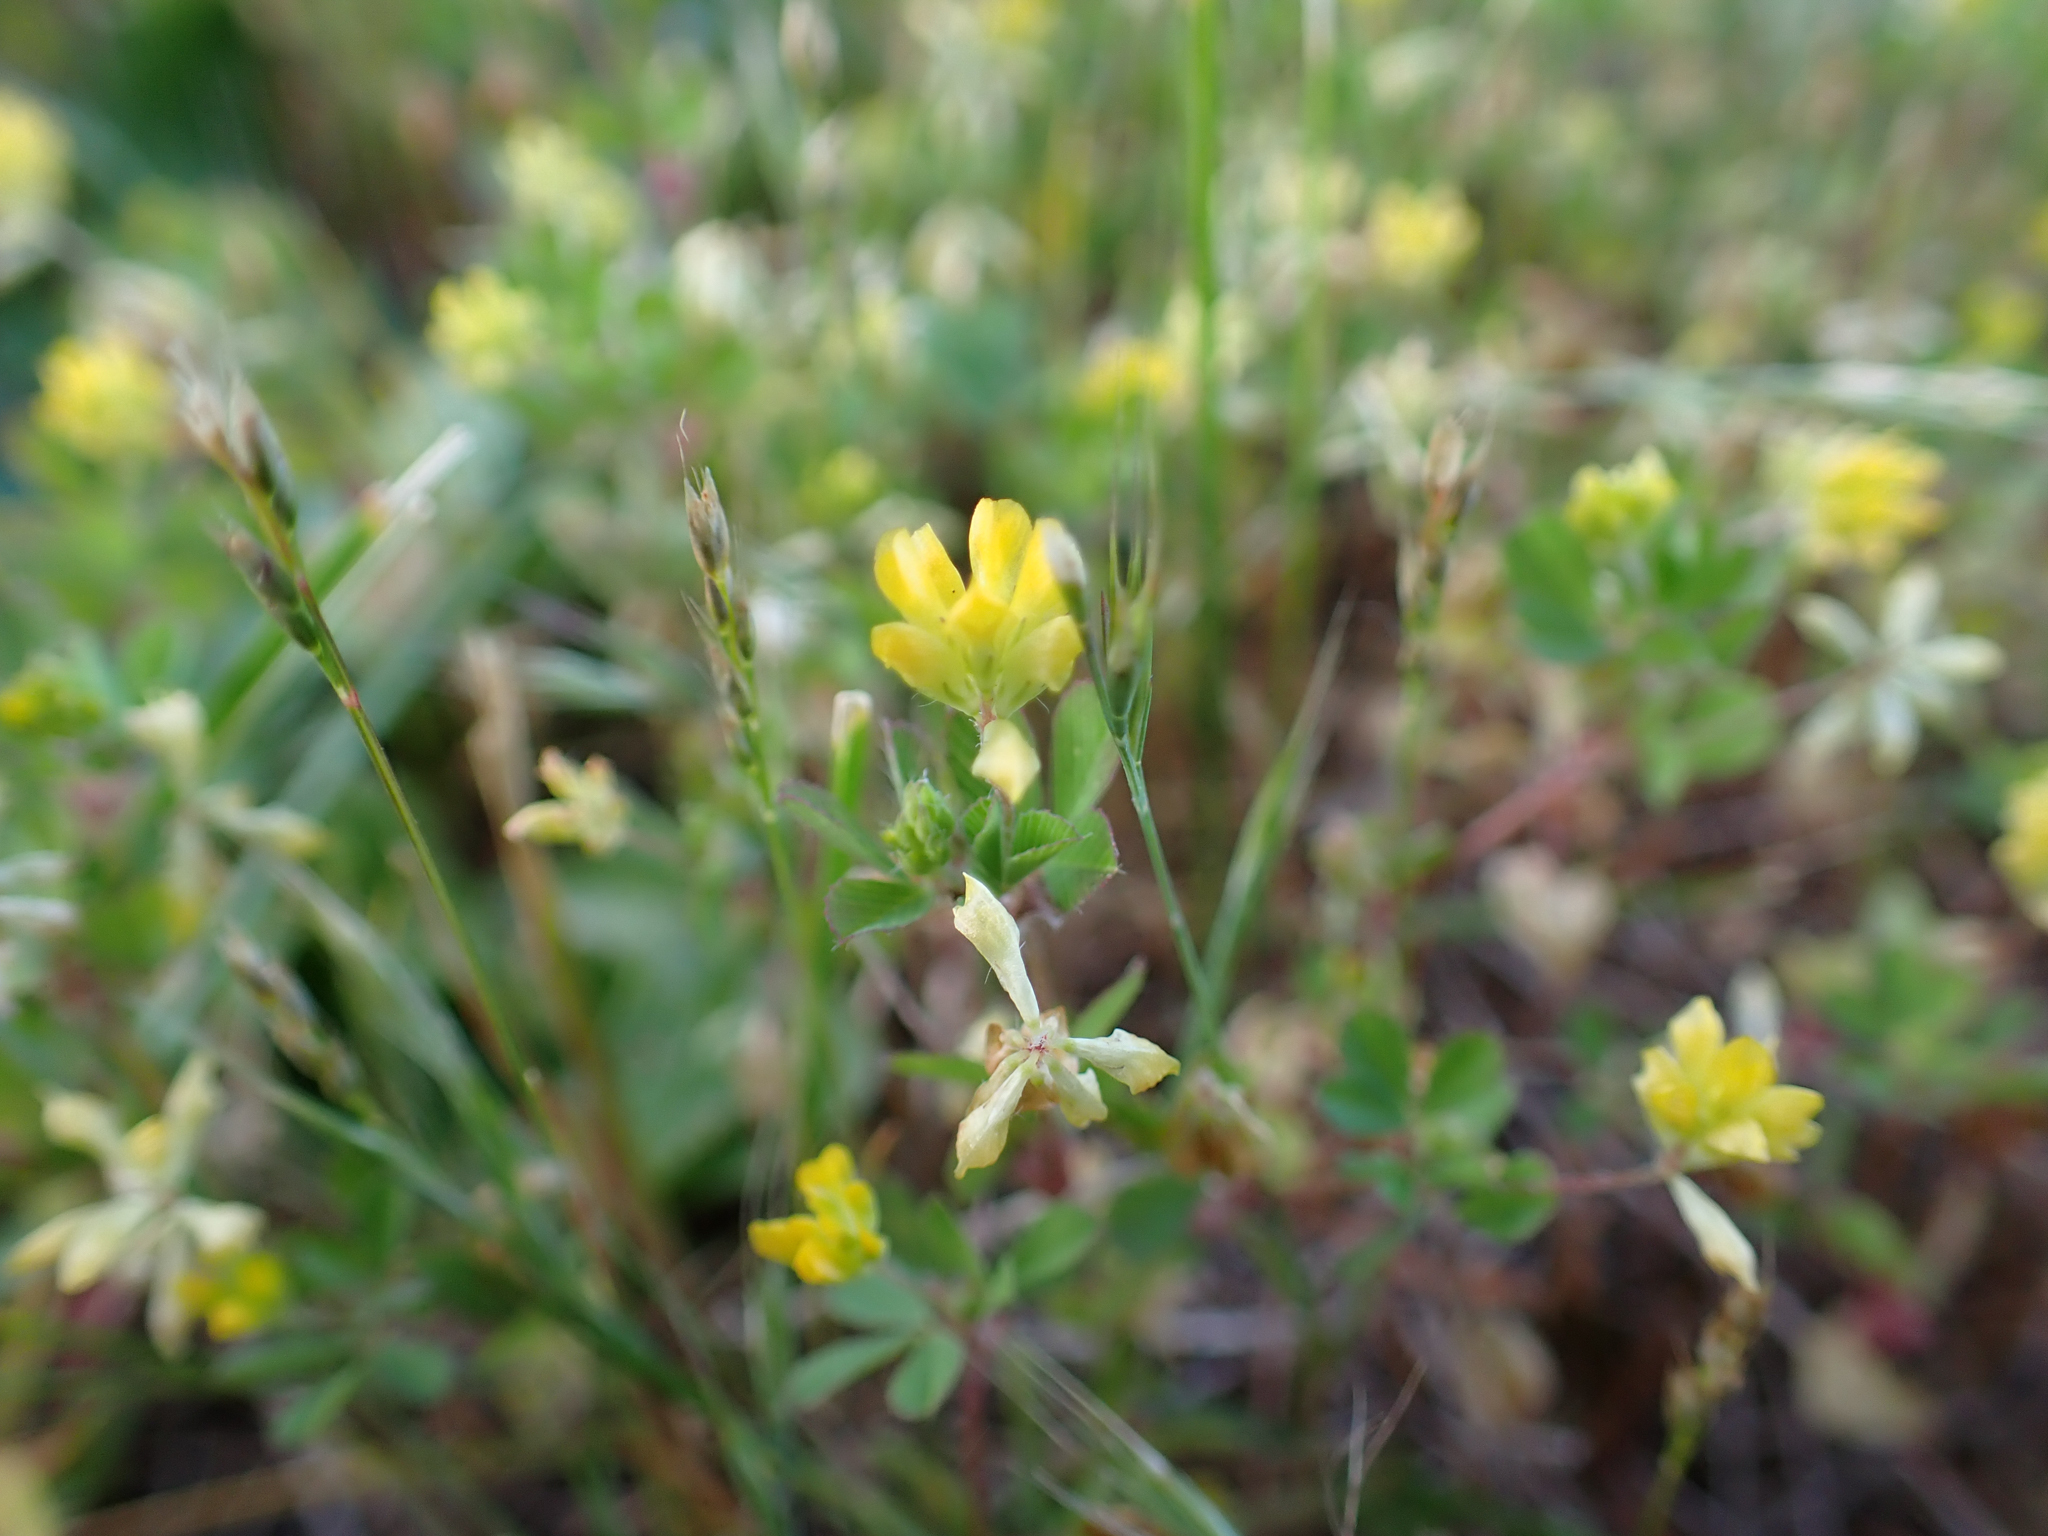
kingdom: Plantae
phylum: Tracheophyta
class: Magnoliopsida
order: Fabales
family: Fabaceae
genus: Trifolium
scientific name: Trifolium dubium
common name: Suckling clover
